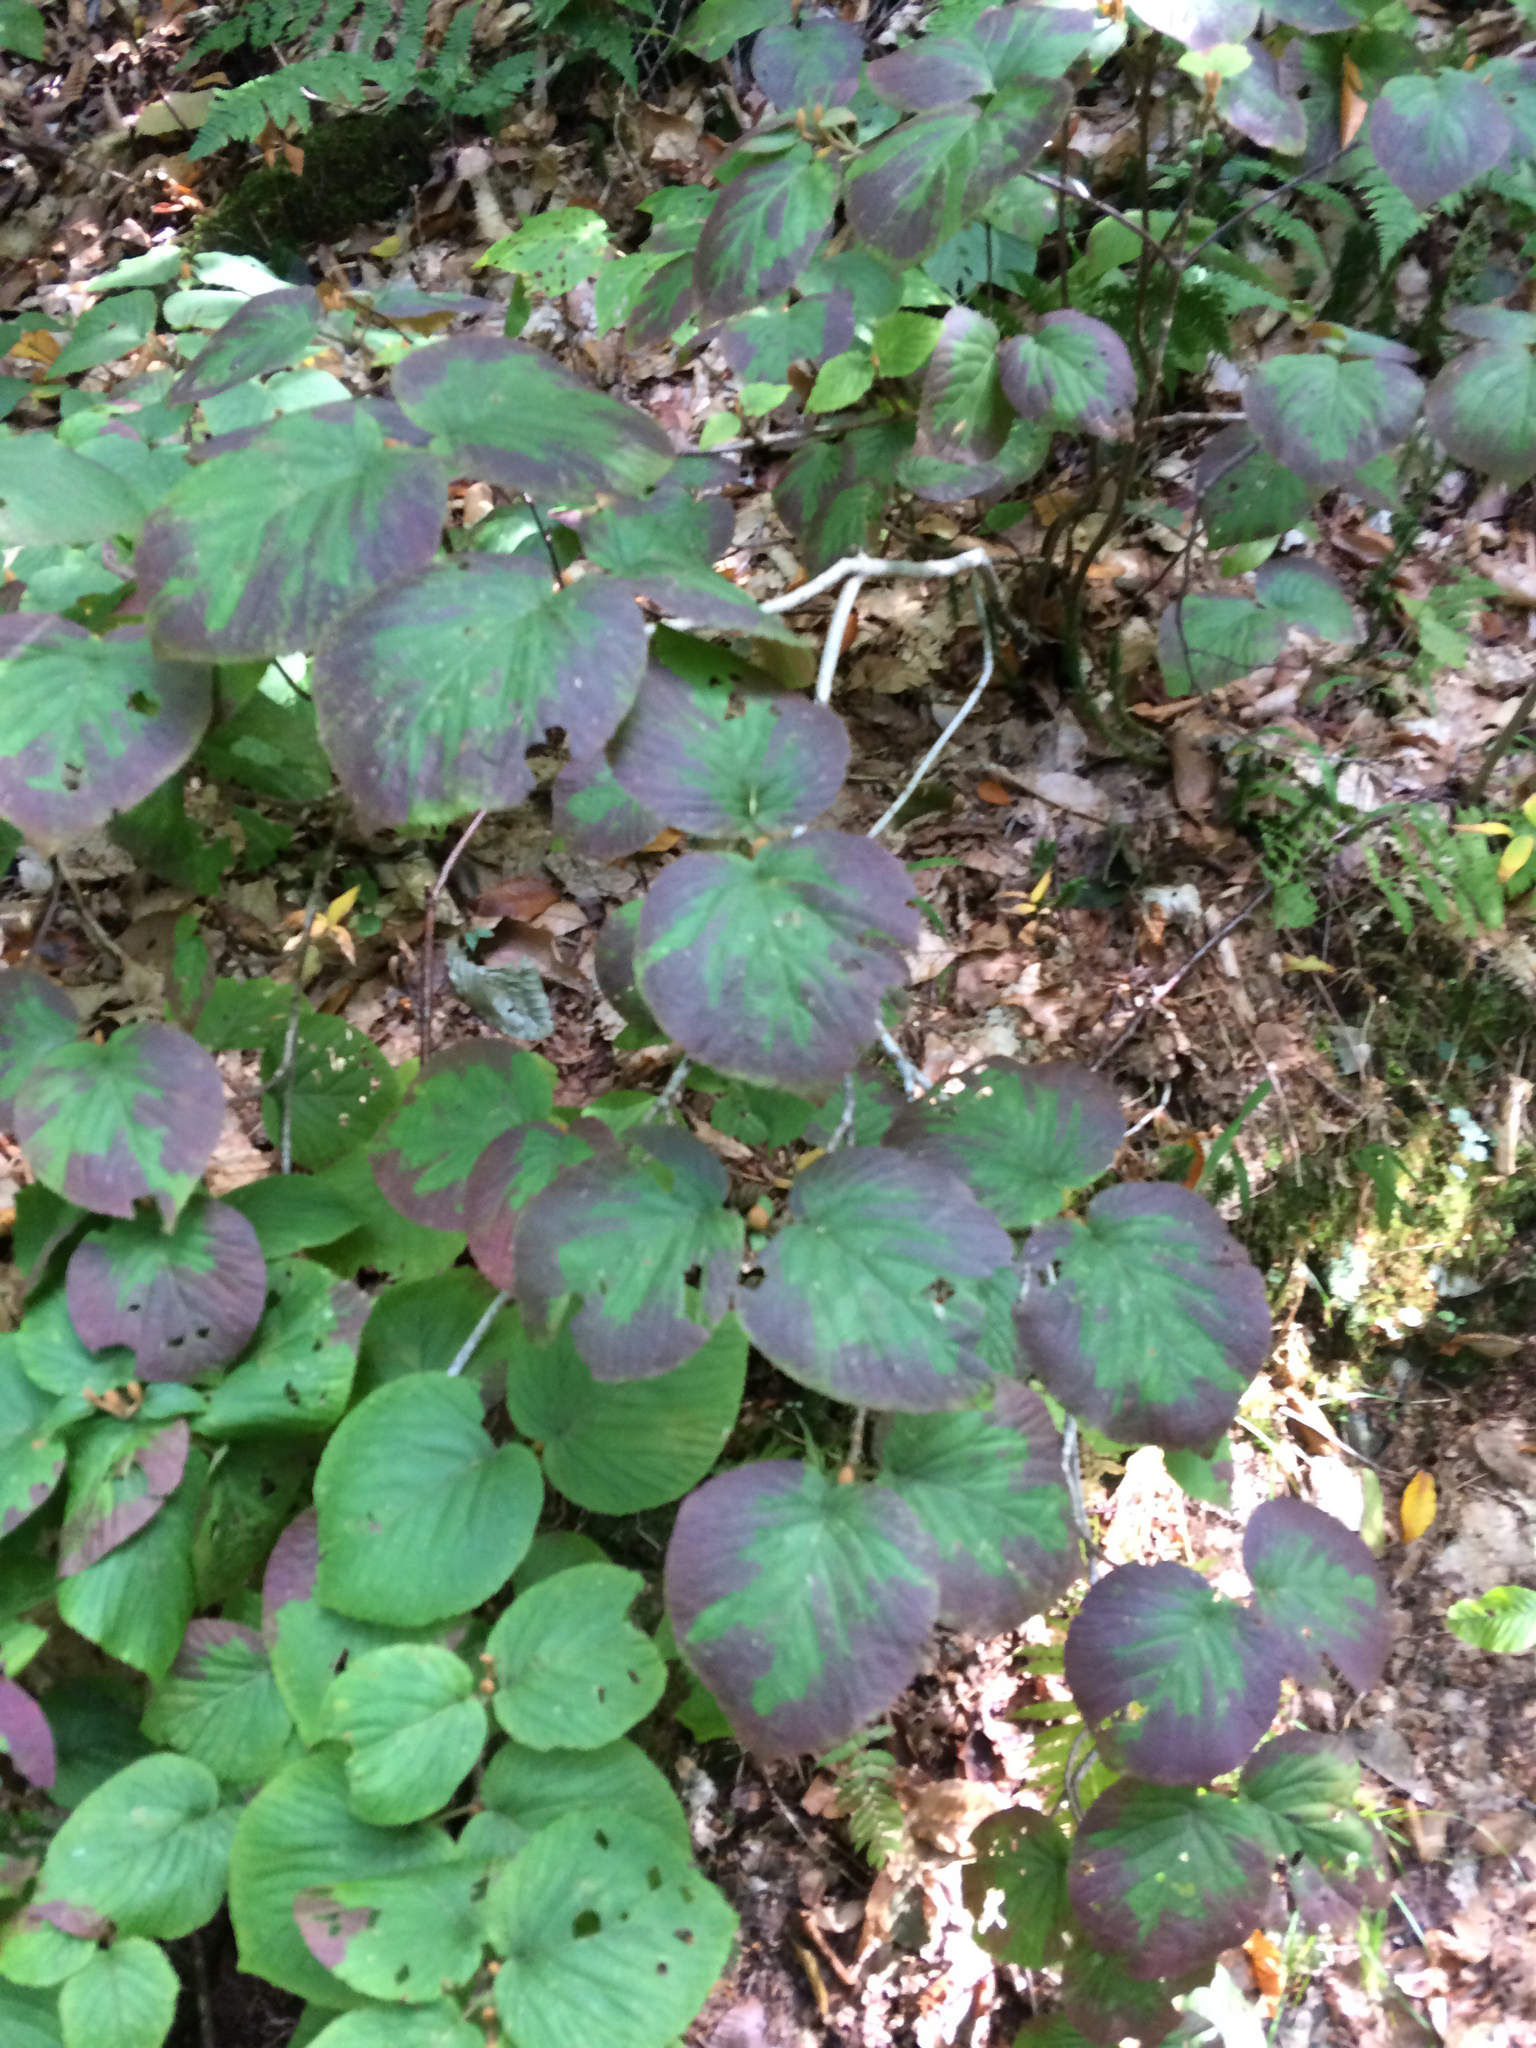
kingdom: Plantae
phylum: Tracheophyta
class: Magnoliopsida
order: Dipsacales
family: Viburnaceae
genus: Viburnum
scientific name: Viburnum lantanoides
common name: Hobblebush
